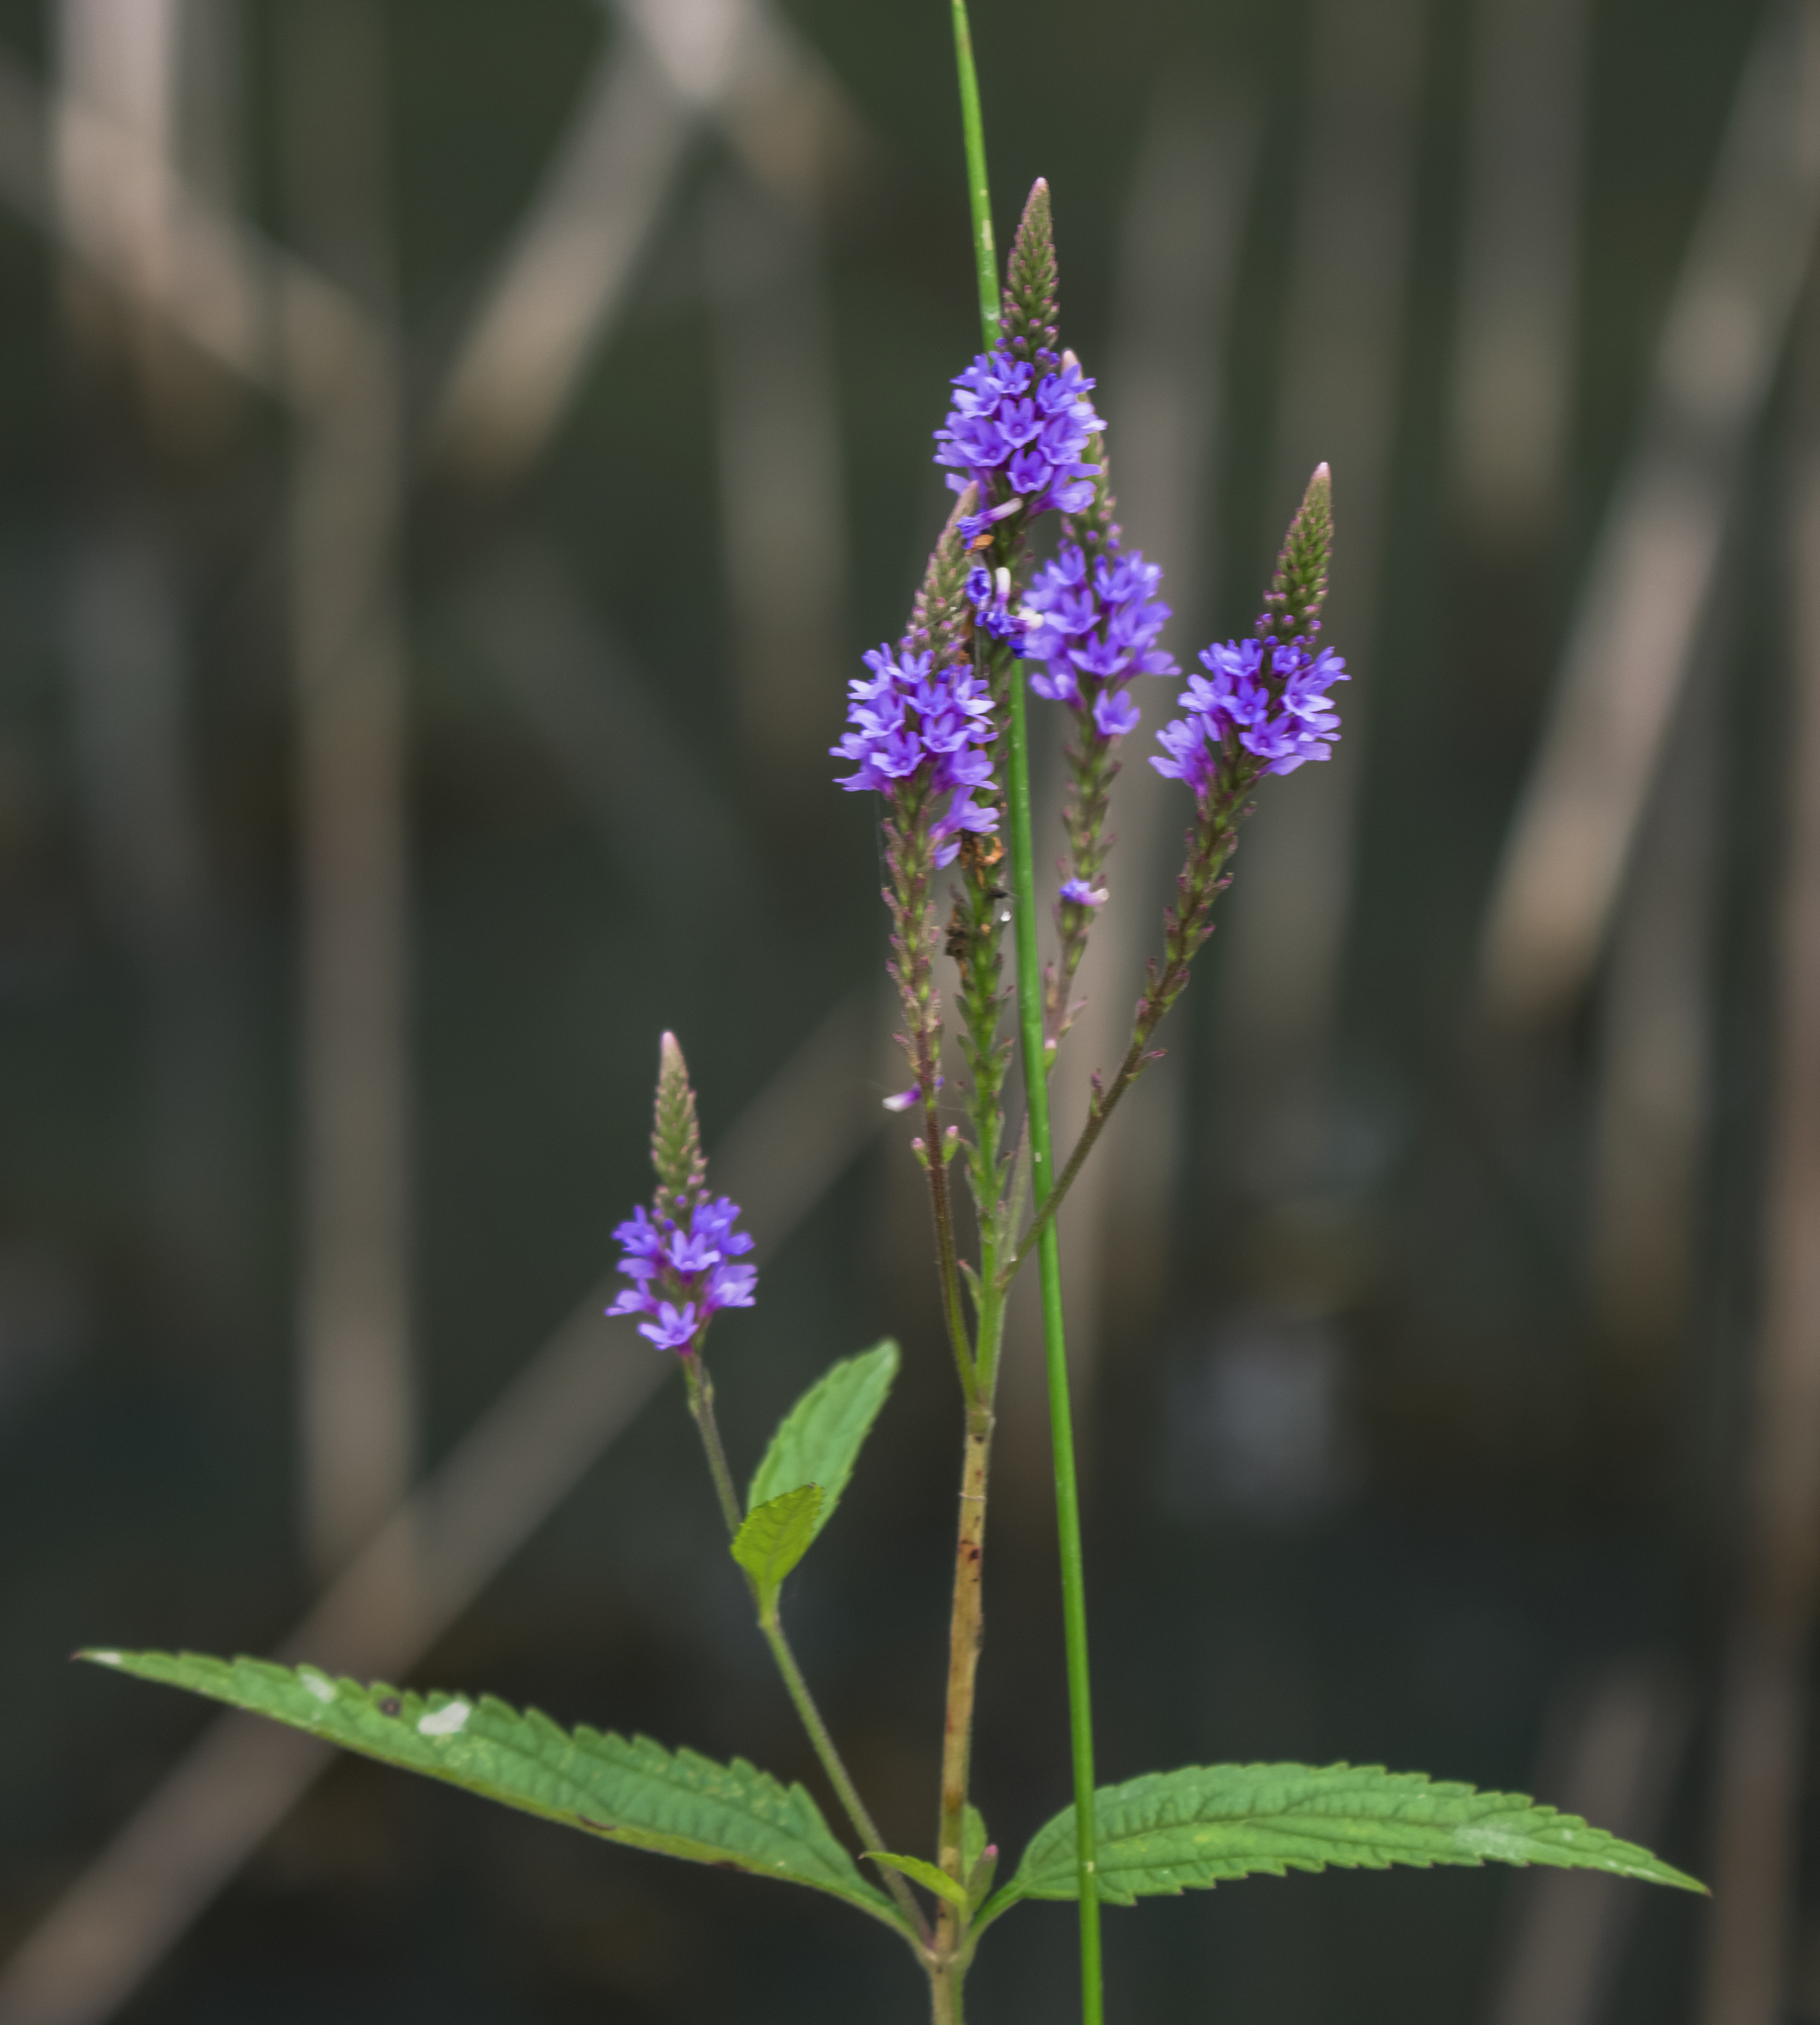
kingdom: Plantae
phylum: Tracheophyta
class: Magnoliopsida
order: Lamiales
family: Verbenaceae
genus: Verbena
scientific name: Verbena hastata
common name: American blue vervain
